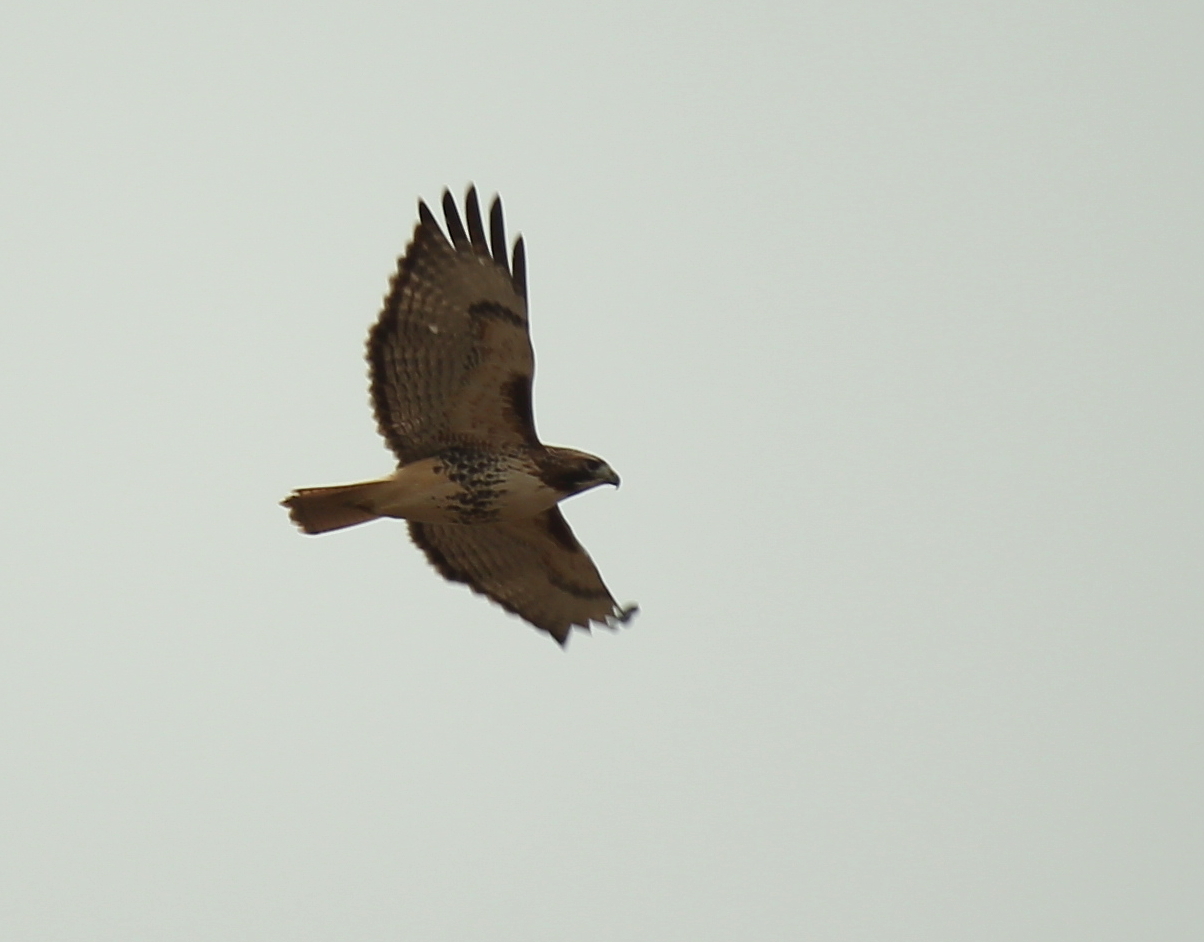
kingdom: Animalia
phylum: Chordata
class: Aves
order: Accipitriformes
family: Accipitridae
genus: Buteo
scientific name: Buteo jamaicensis
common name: Red-tailed hawk
